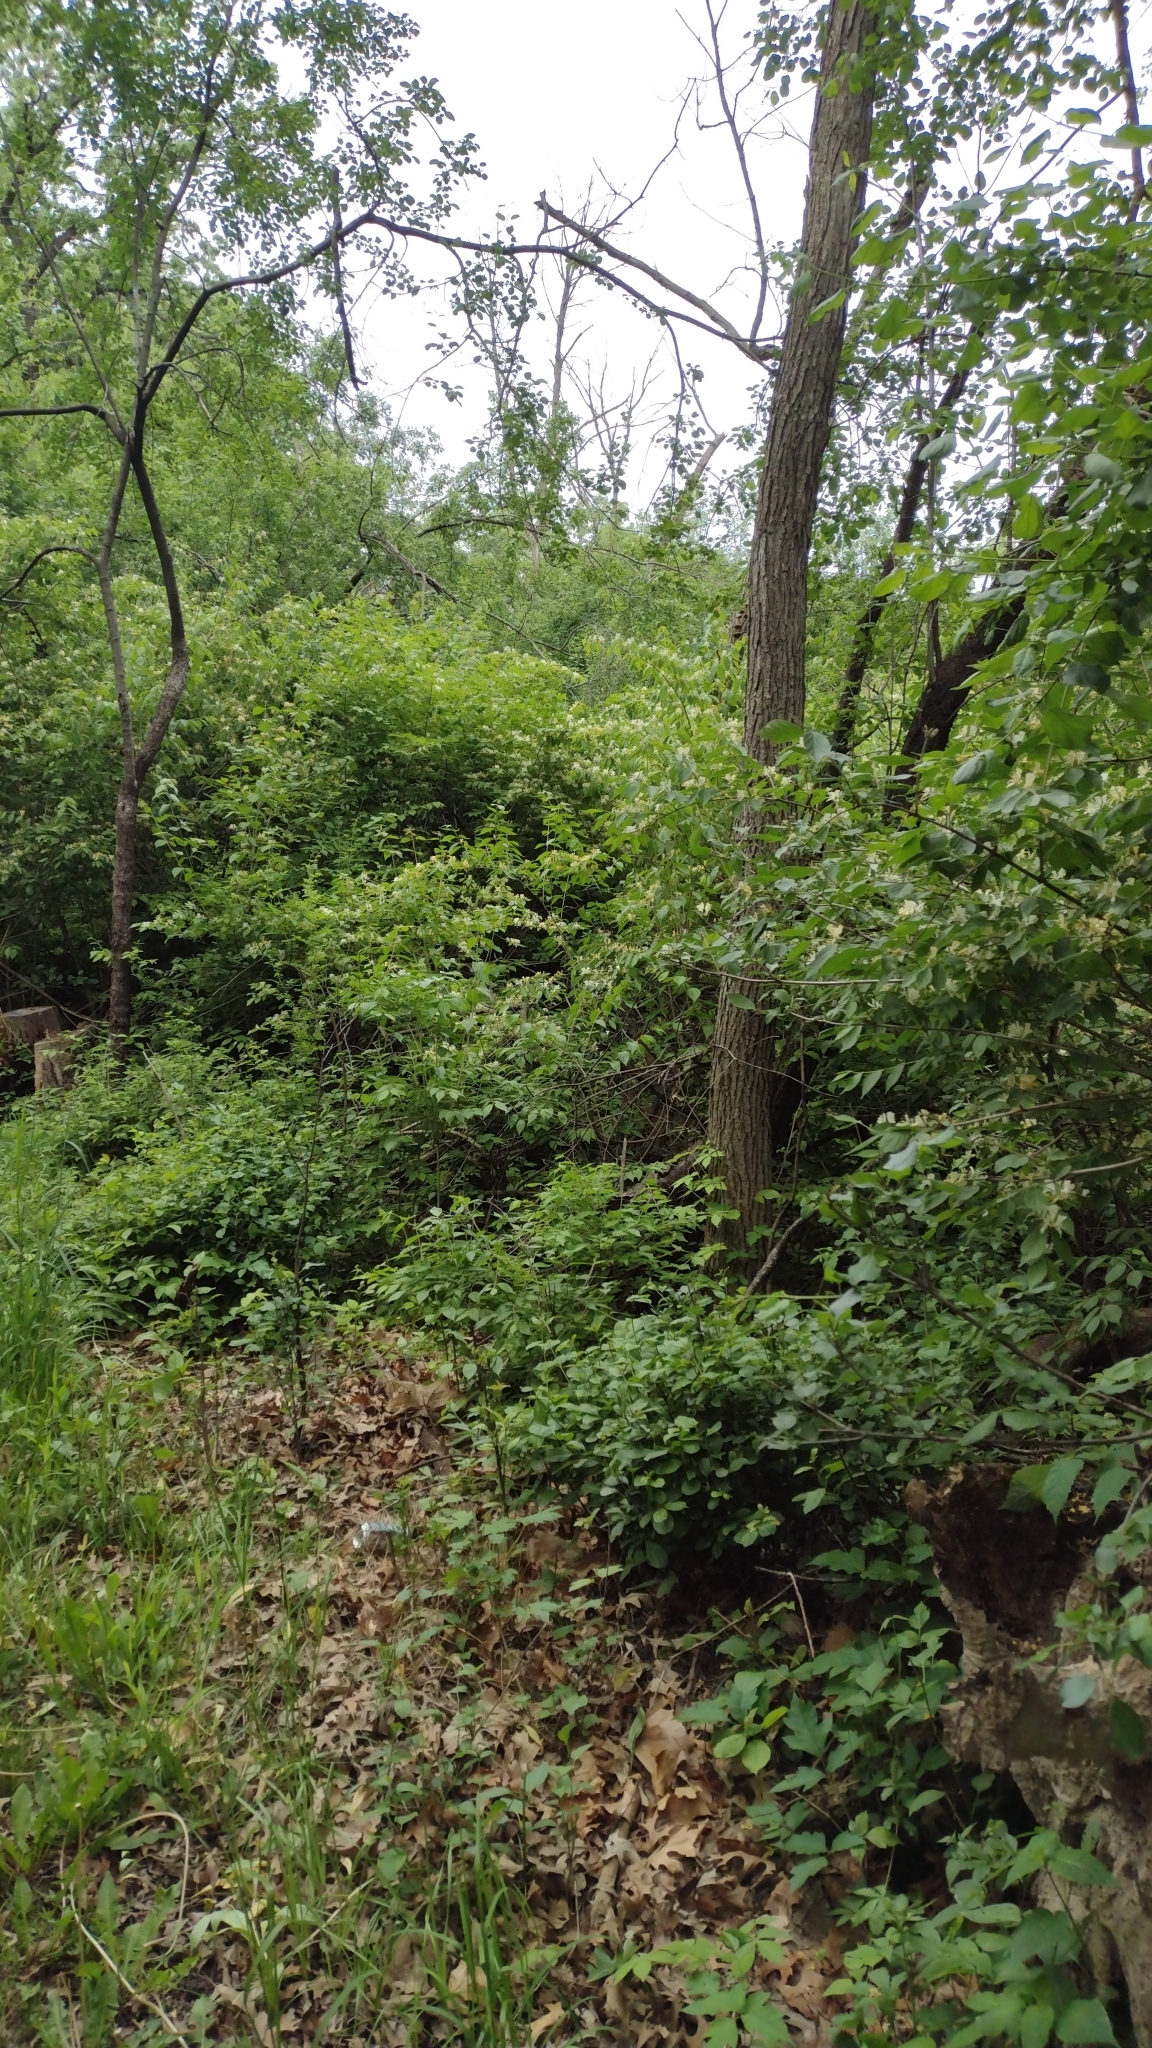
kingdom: Plantae
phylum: Tracheophyta
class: Magnoliopsida
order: Dipsacales
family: Caprifoliaceae
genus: Lonicera
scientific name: Lonicera maackii
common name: Amur honeysuckle
